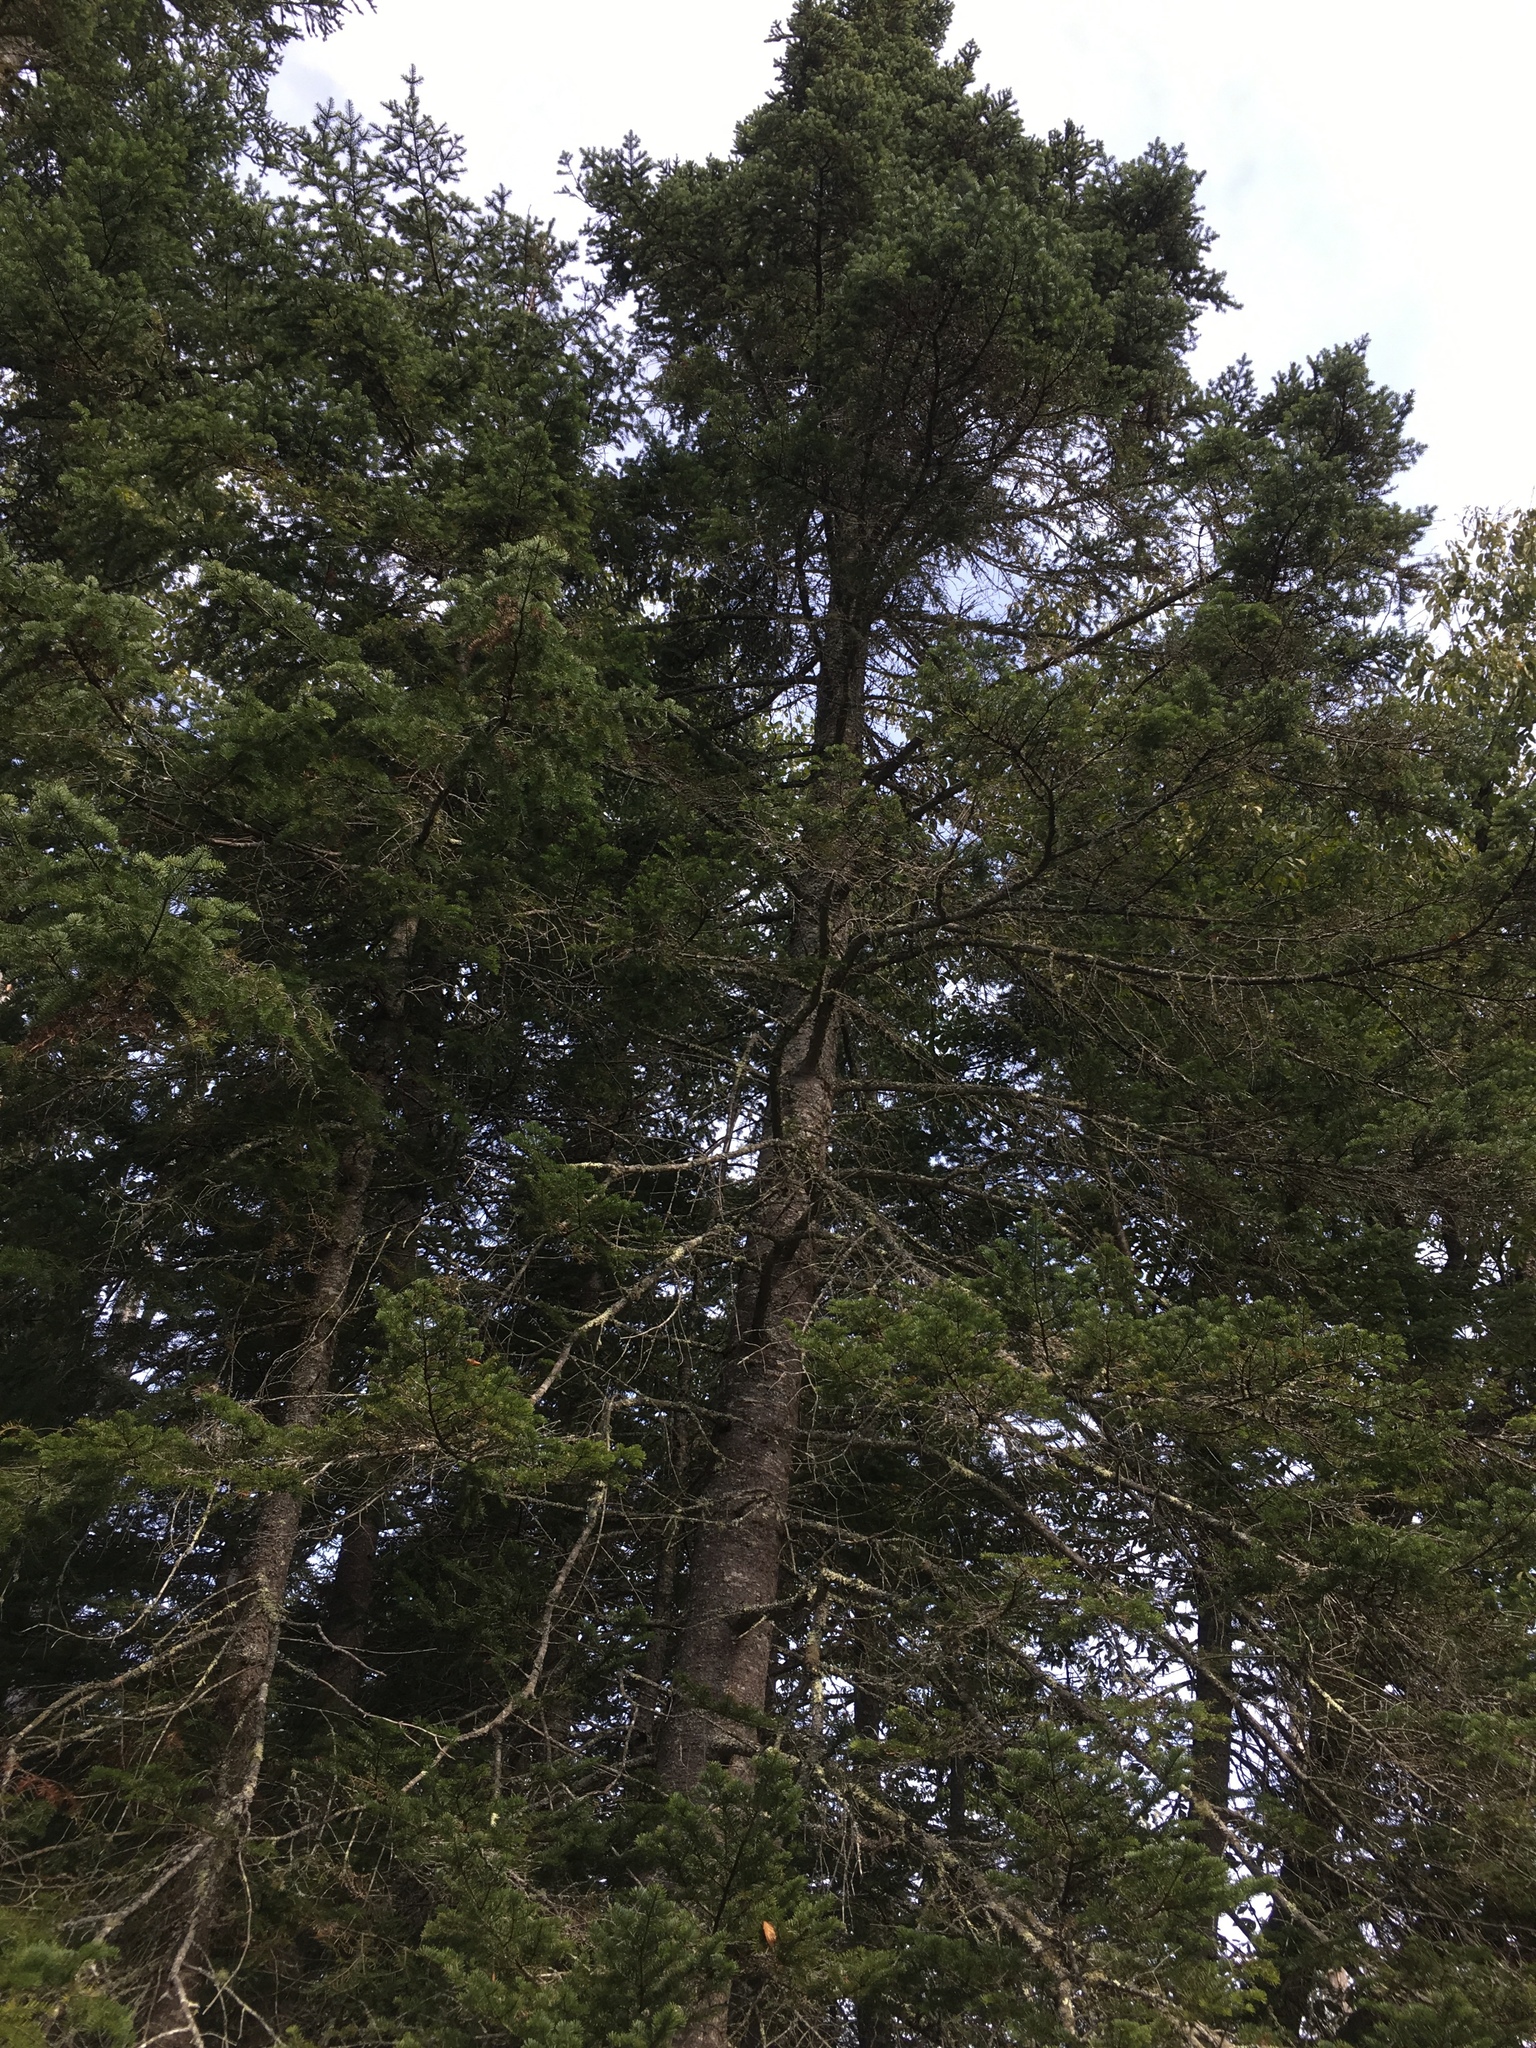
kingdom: Plantae
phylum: Tracheophyta
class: Pinopsida
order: Pinales
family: Pinaceae
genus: Abies
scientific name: Abies balsamea
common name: Balsam fir
